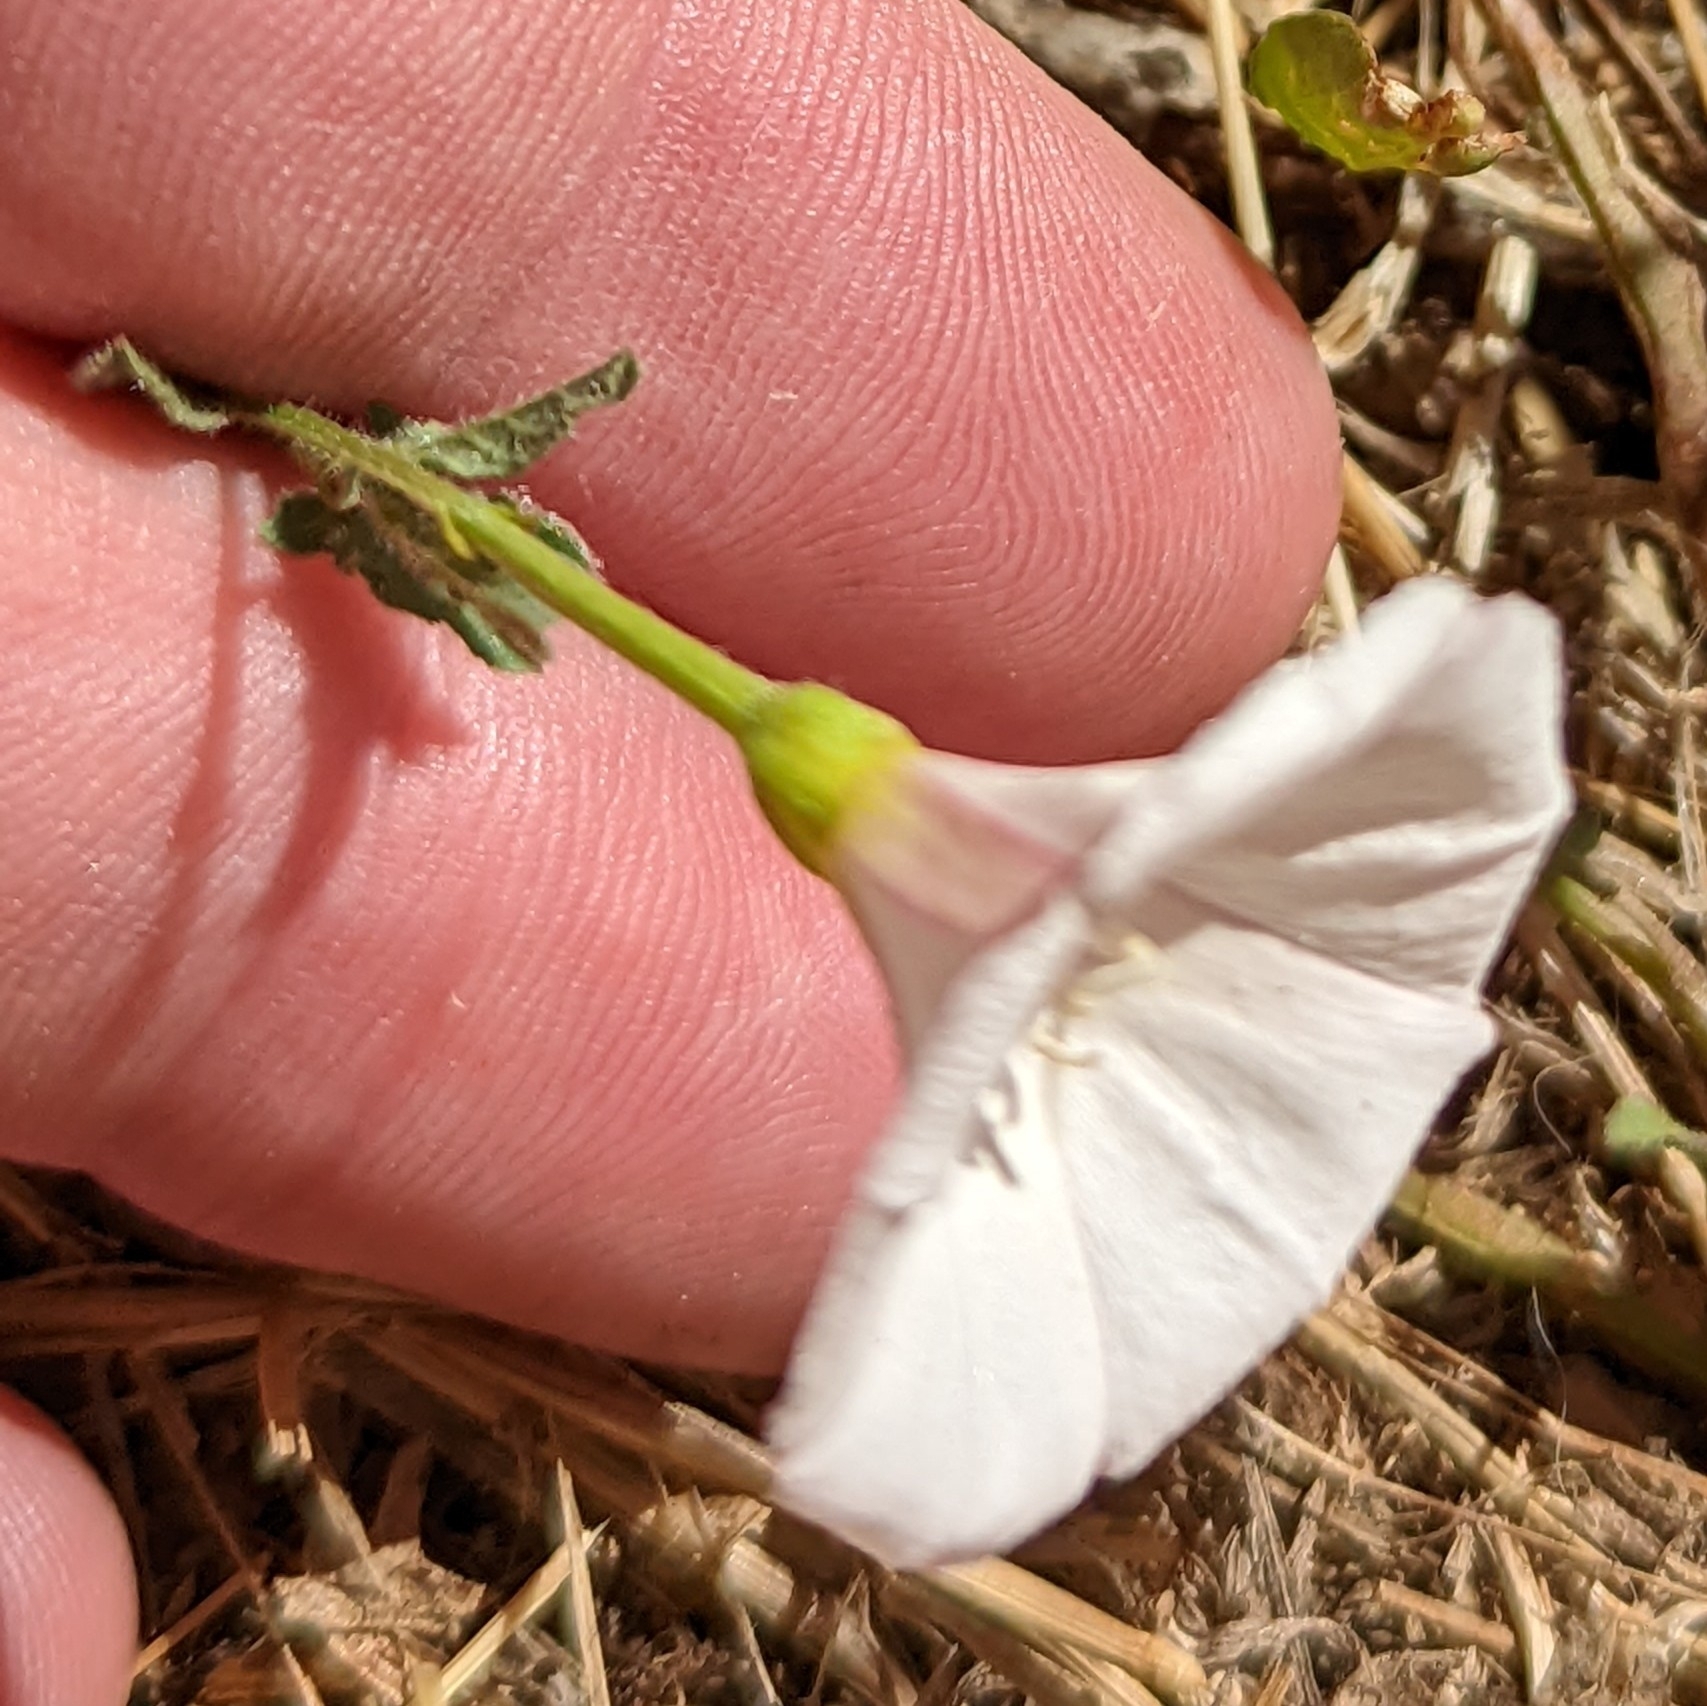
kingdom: Plantae
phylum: Tracheophyta
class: Magnoliopsida
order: Solanales
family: Convolvulaceae
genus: Convolvulus
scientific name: Convolvulus arvensis
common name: Field bindweed
